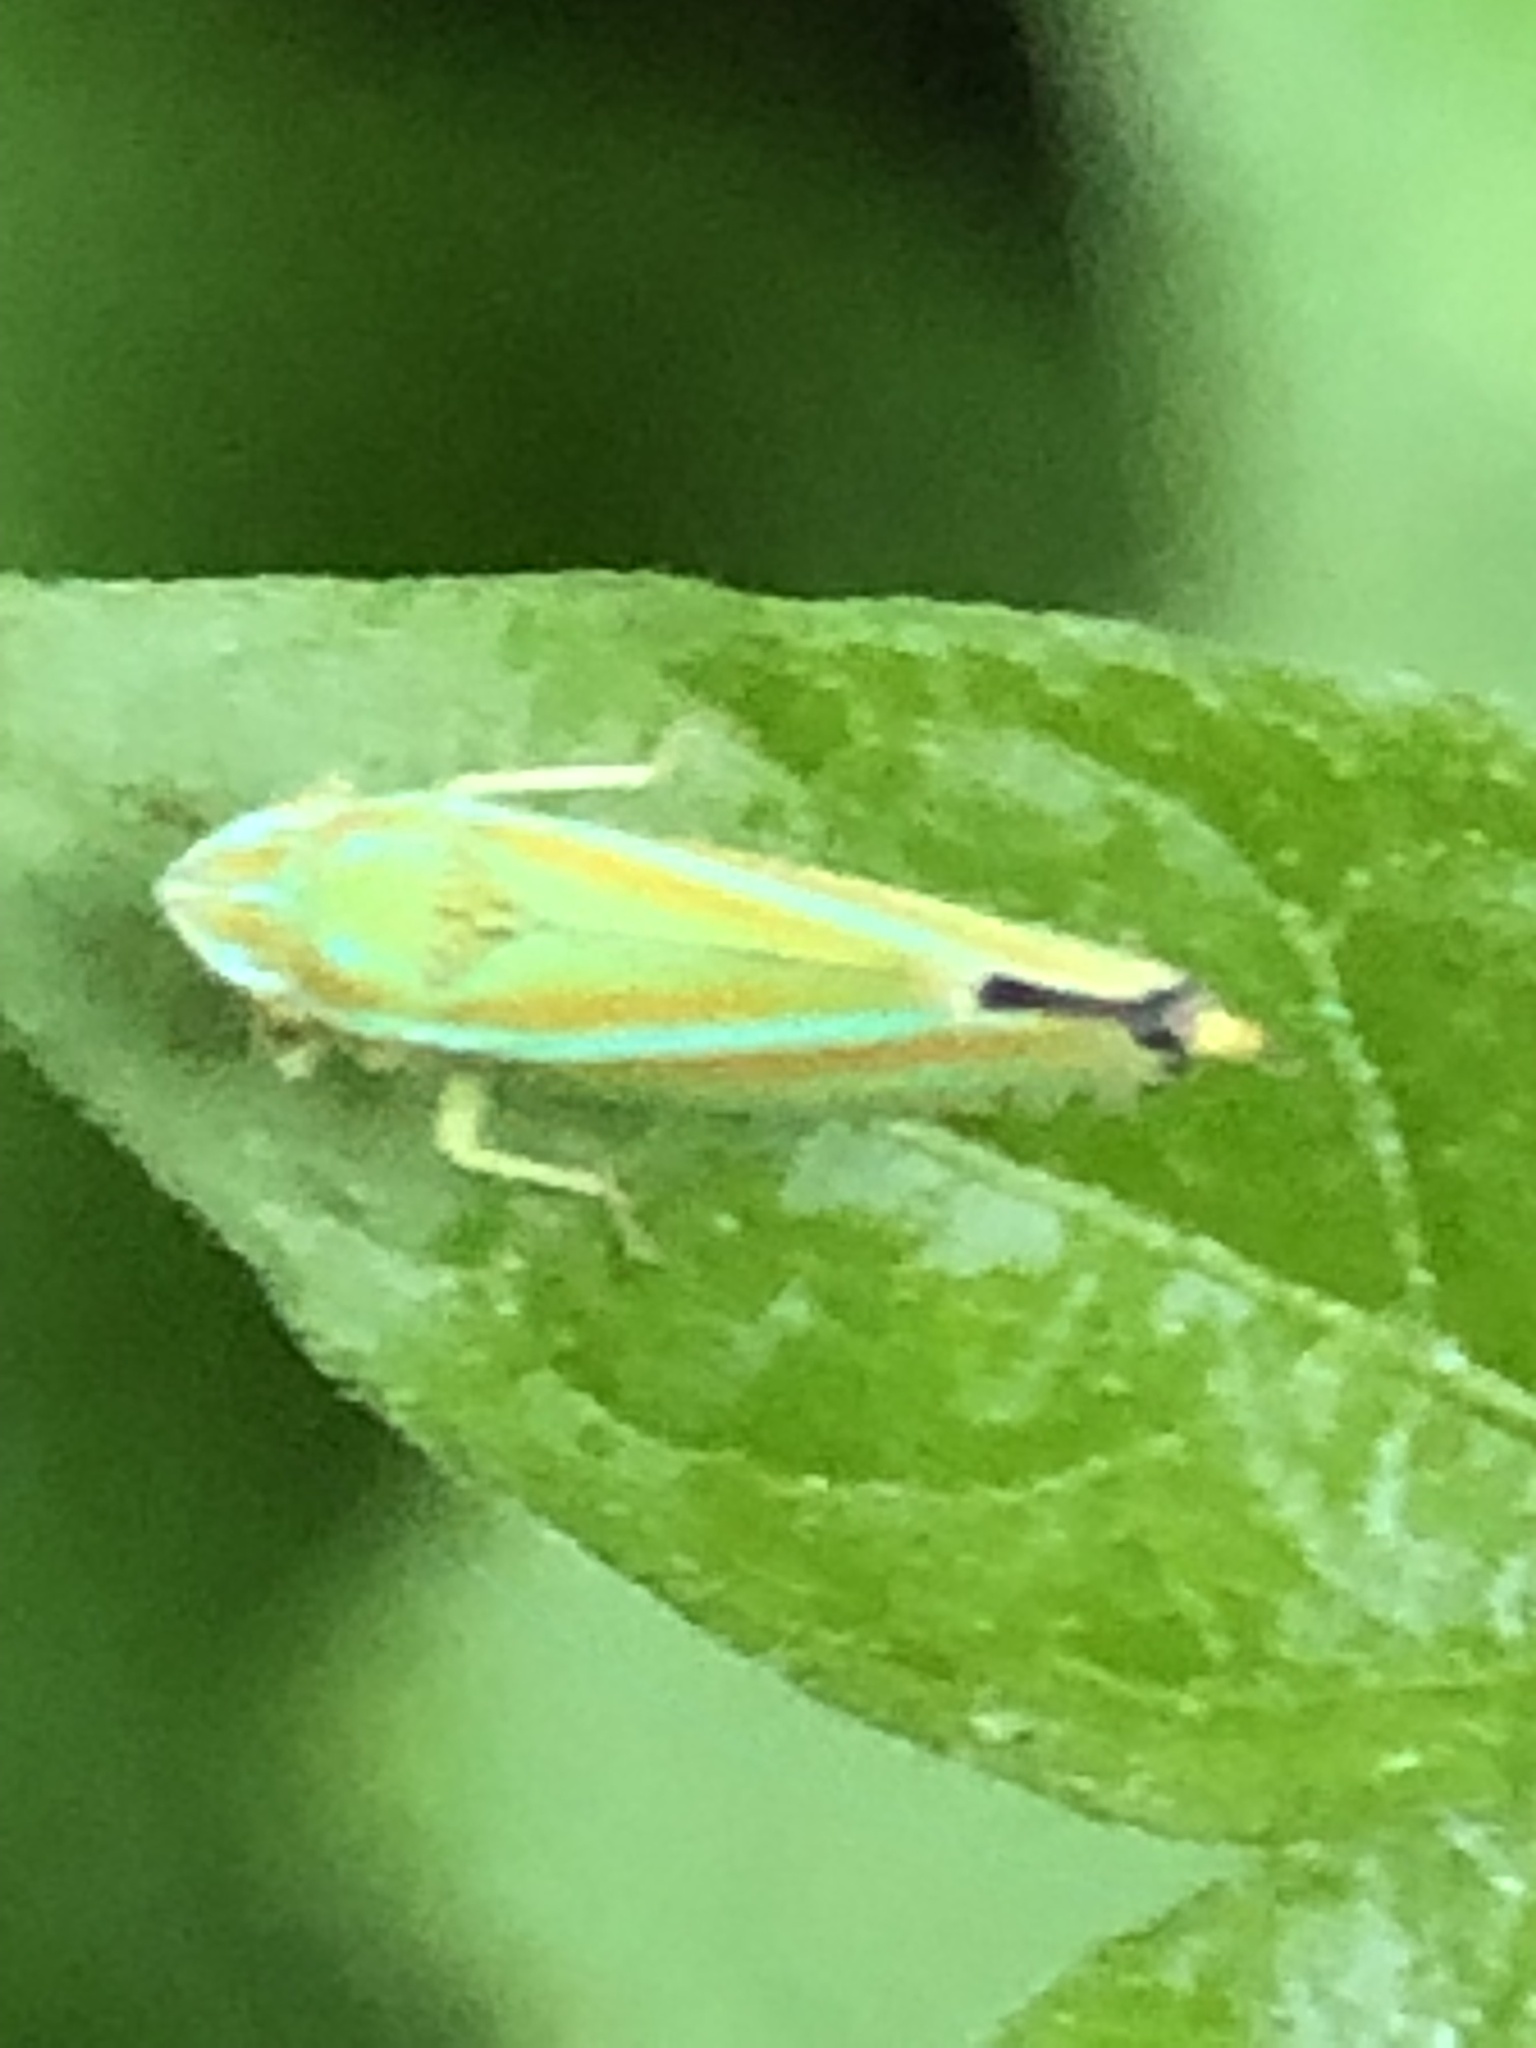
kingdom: Animalia
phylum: Arthropoda
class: Insecta
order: Hemiptera
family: Cicadellidae
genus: Graphocephala
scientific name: Graphocephala versuta
